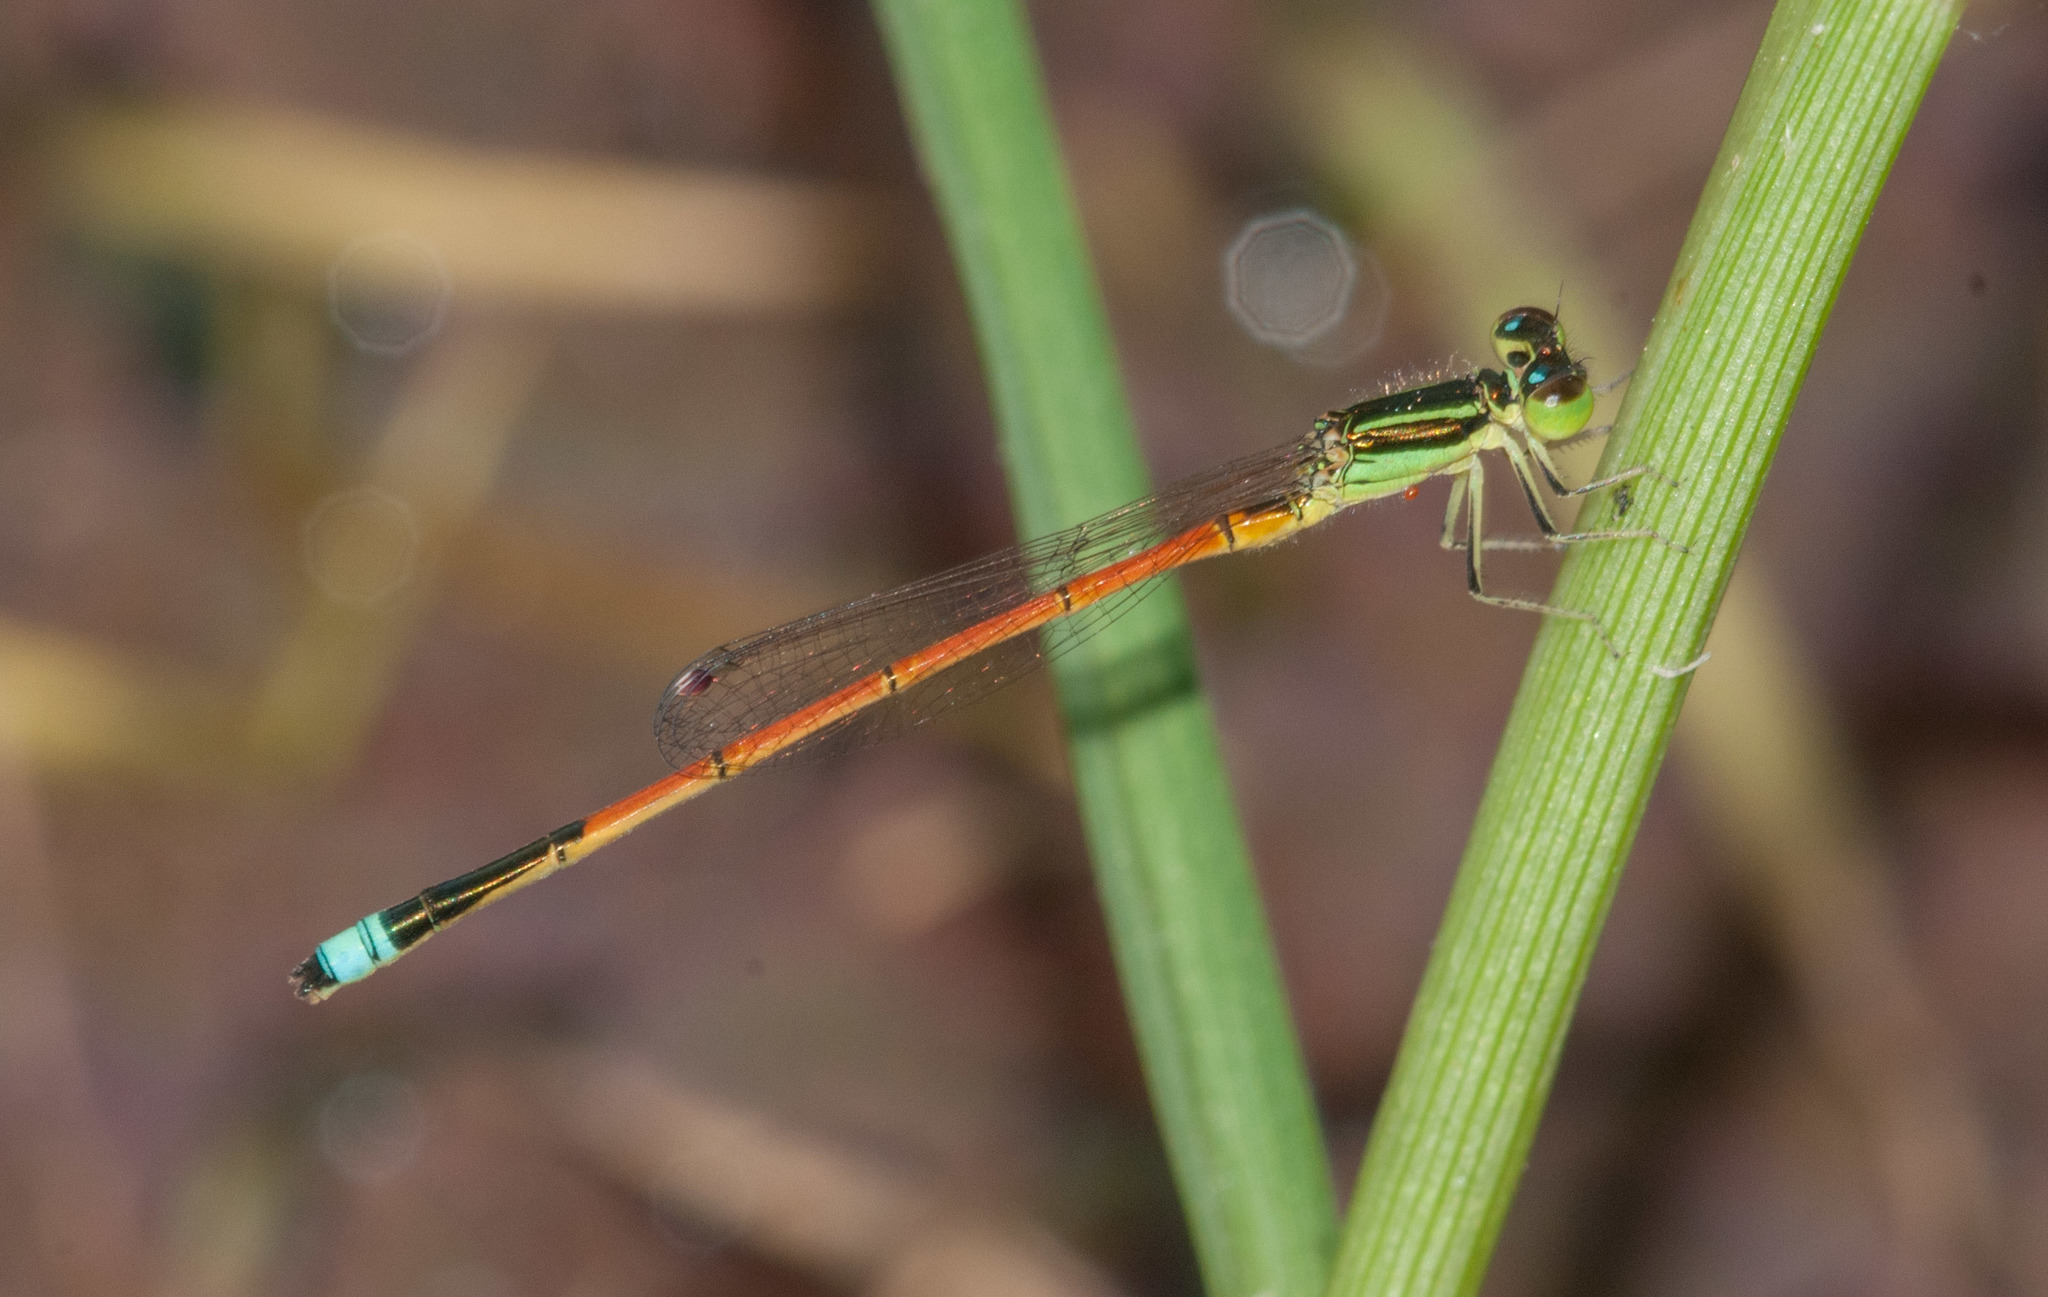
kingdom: Animalia
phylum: Arthropoda
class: Insecta
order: Odonata
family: Coenagrionidae
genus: Ischnura
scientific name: Ischnura aurora
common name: Gossamer damselfly
